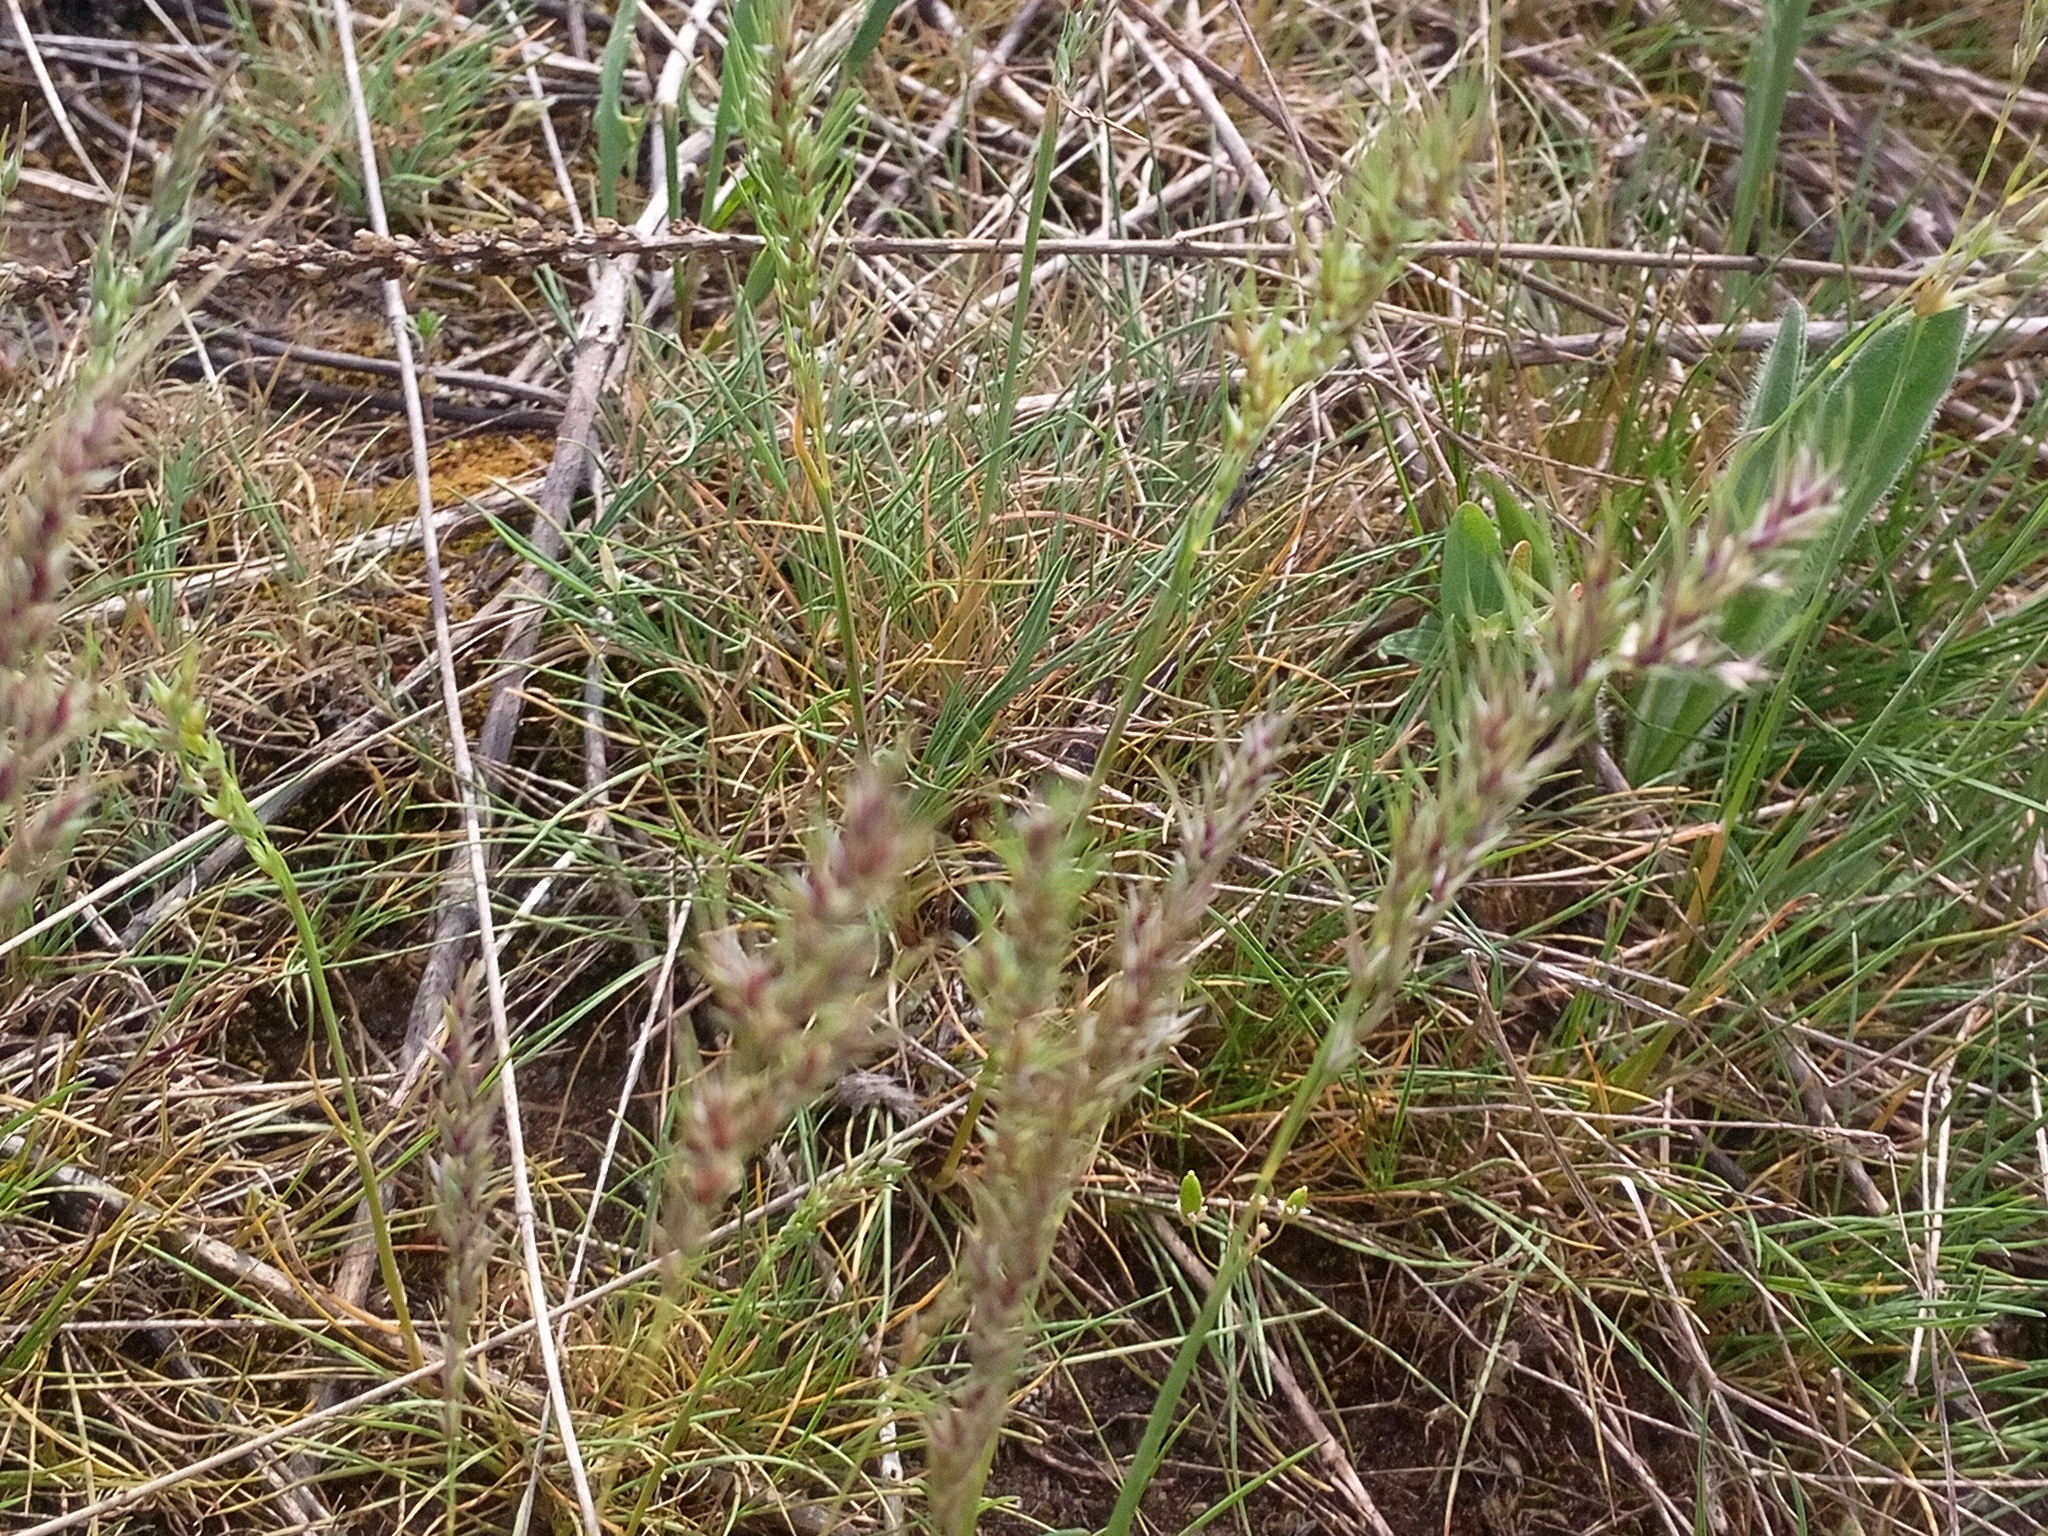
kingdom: Plantae
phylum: Tracheophyta
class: Liliopsida
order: Poales
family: Poaceae
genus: Poa
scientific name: Poa bulbosa
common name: Bulbous bluegrass
